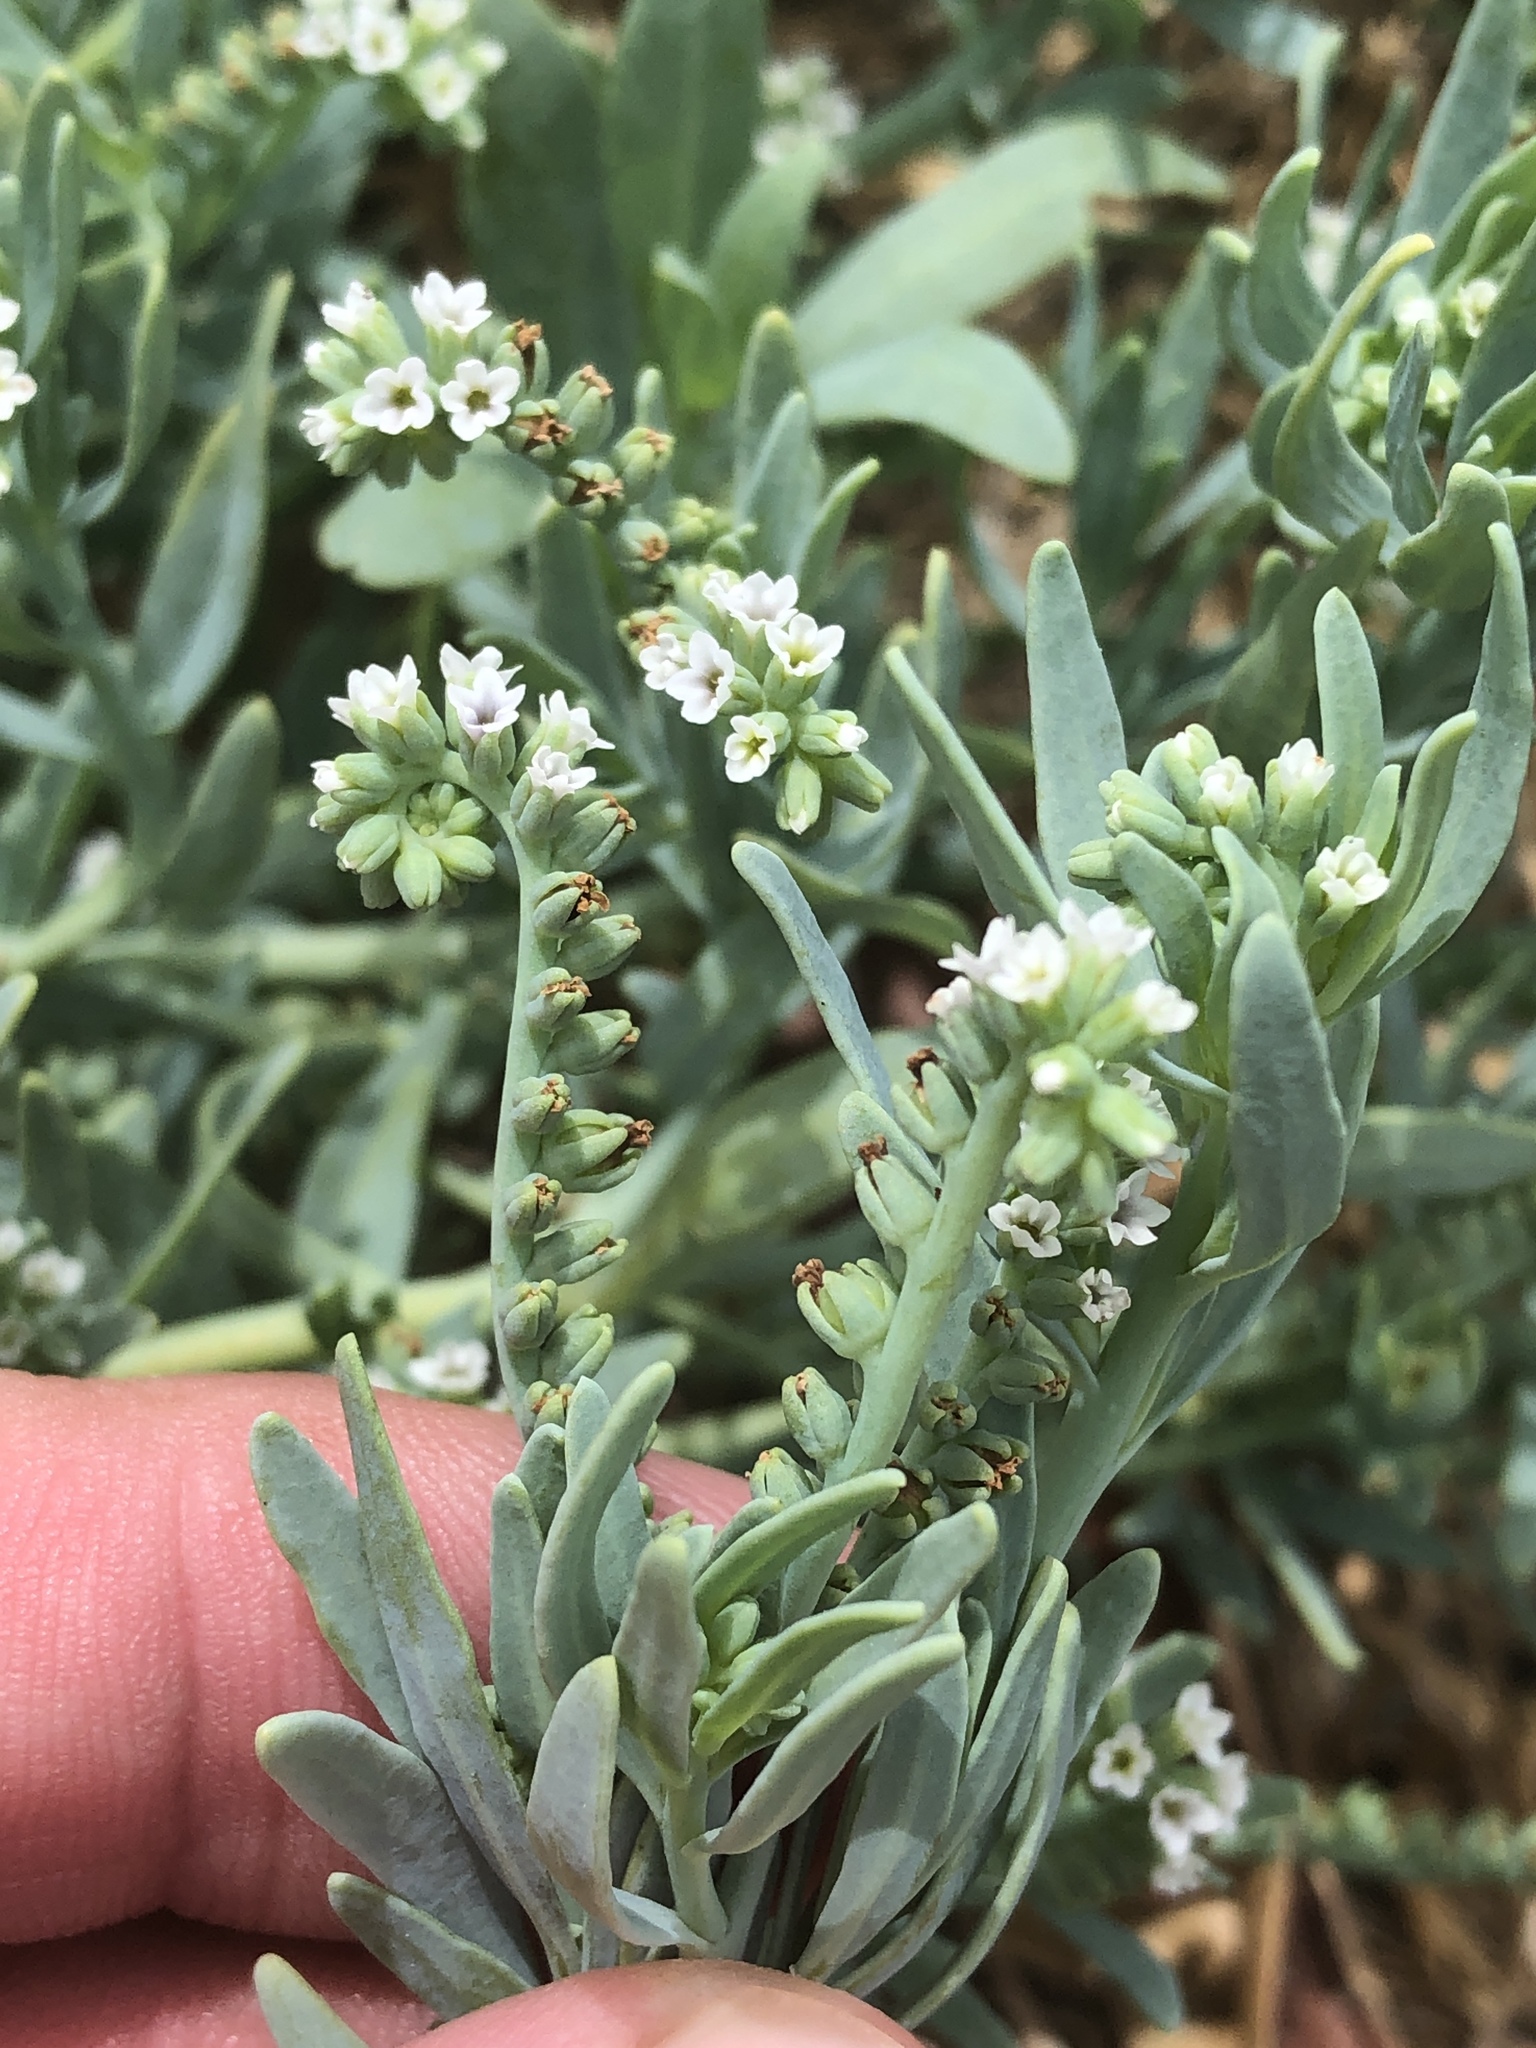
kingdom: Plantae
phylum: Tracheophyta
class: Magnoliopsida
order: Boraginales
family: Heliotropiaceae
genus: Heliotropium
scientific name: Heliotropium curassavicum
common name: Seaside heliotrope
